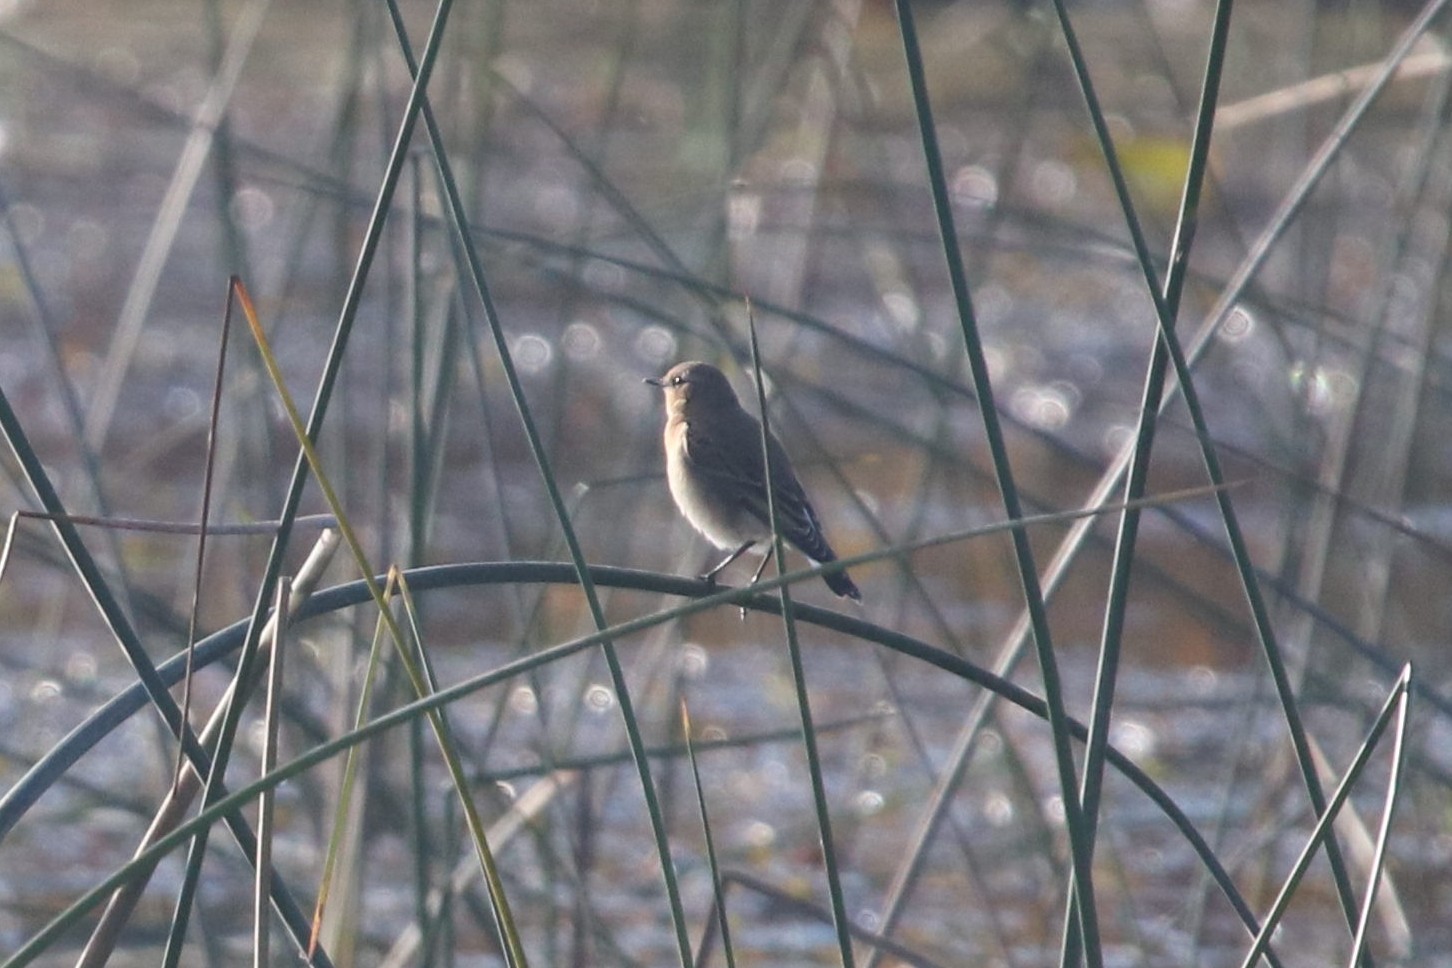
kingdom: Animalia
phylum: Chordata
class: Aves
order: Passeriformes
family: Muscicapidae
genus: Oenanthe
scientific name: Oenanthe oenanthe
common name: Northern wheatear
